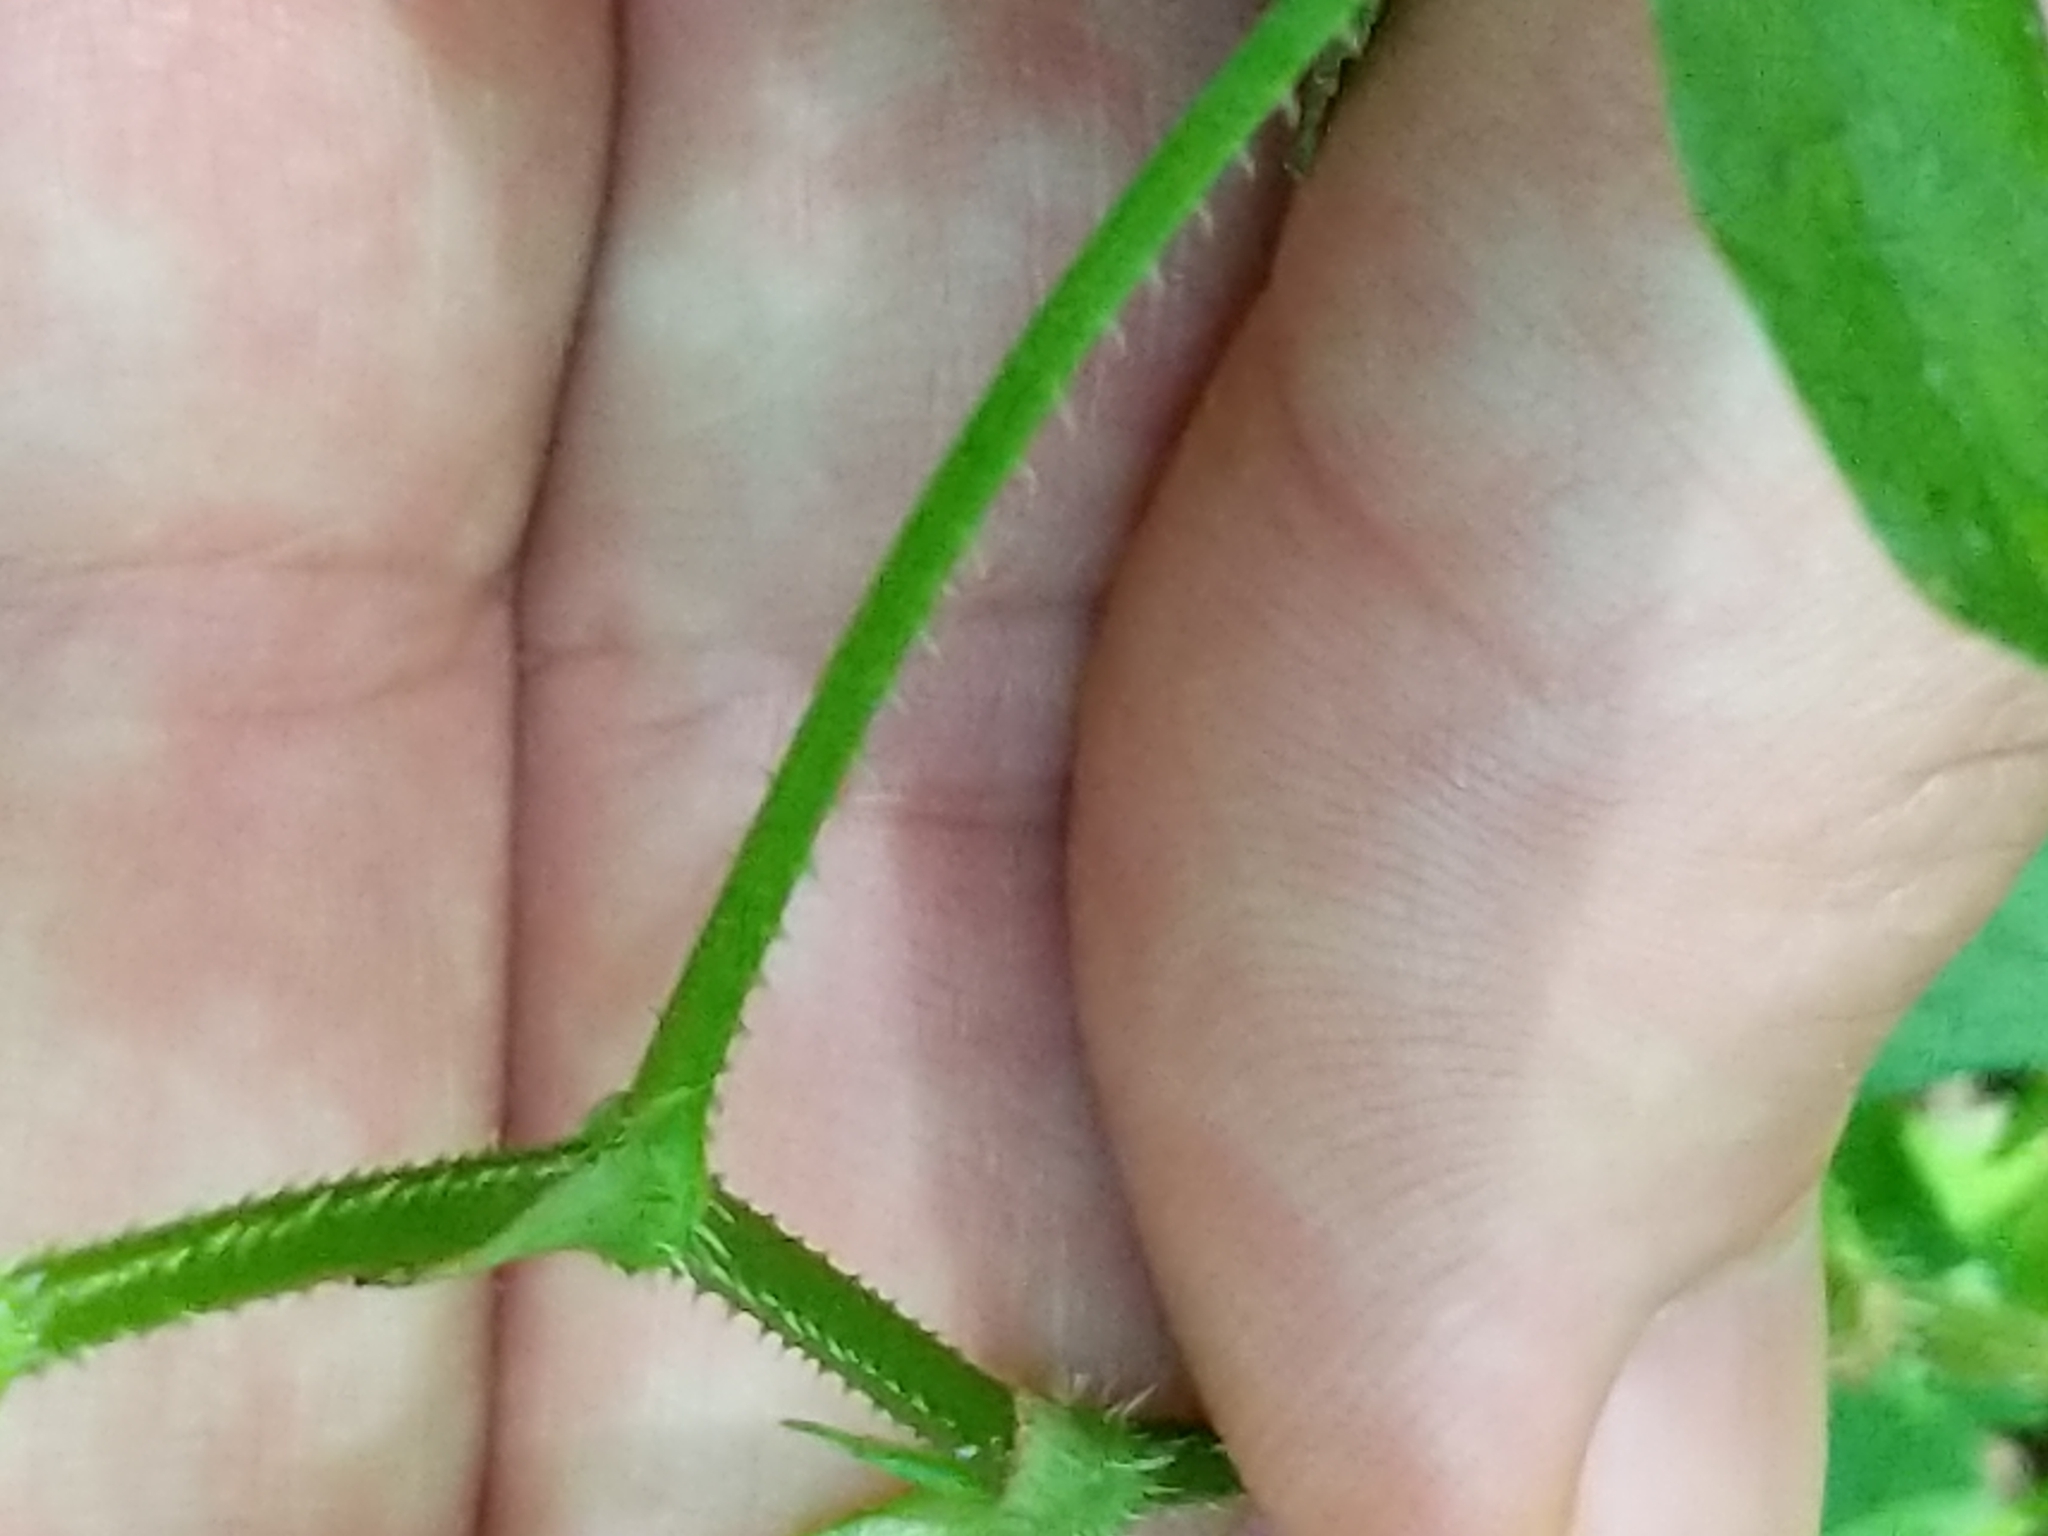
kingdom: Plantae
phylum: Tracheophyta
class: Magnoliopsida
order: Caryophyllales
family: Polygonaceae
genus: Persicaria
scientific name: Persicaria arifolia
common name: Halberd-leaved tear-thumb
